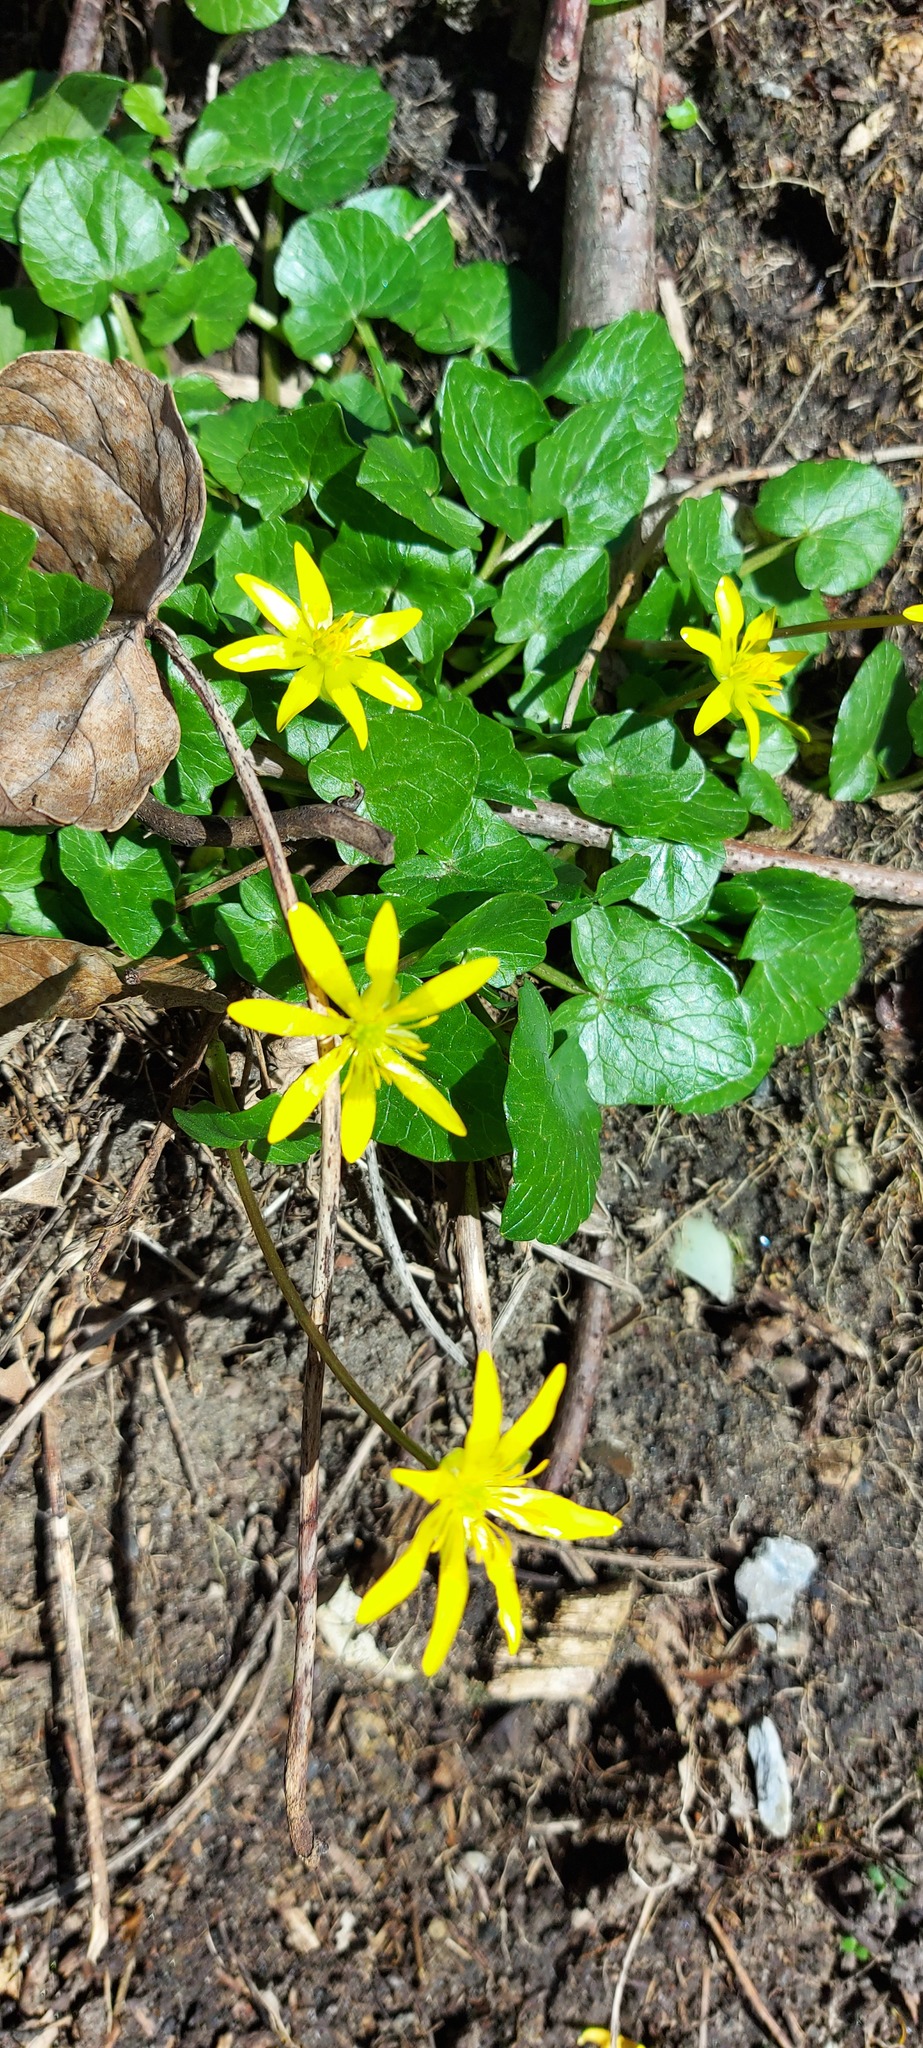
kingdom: Plantae
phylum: Tracheophyta
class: Magnoliopsida
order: Ranunculales
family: Ranunculaceae
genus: Ficaria
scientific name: Ficaria verna
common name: Lesser celandine
